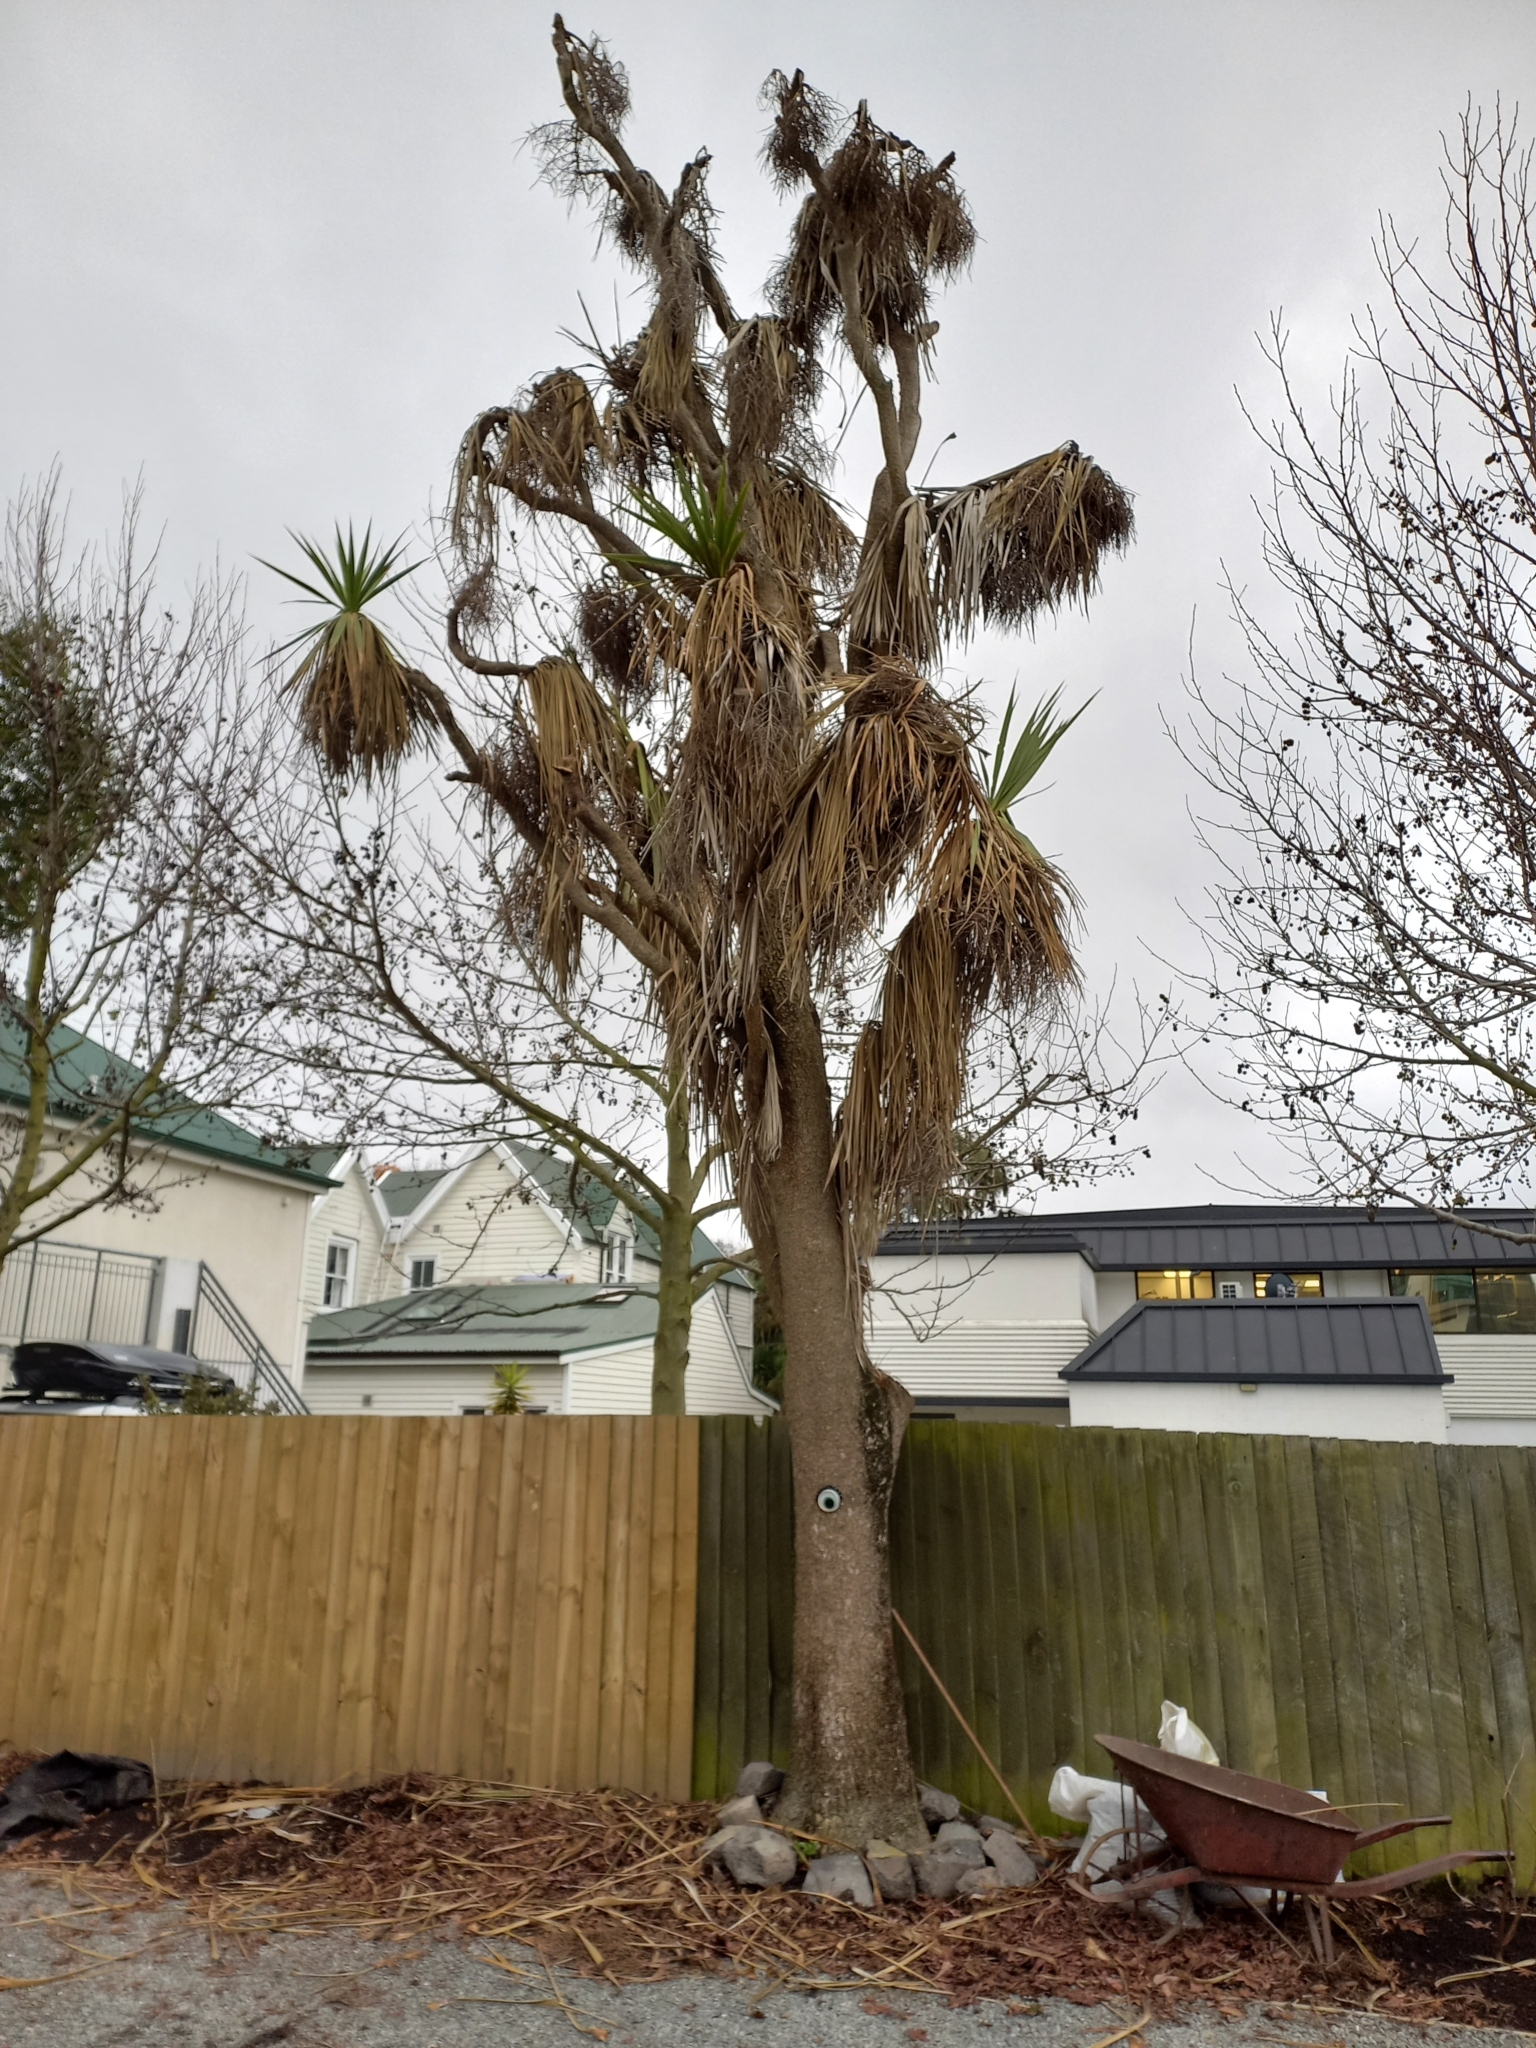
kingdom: Plantae
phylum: Tracheophyta
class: Liliopsida
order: Asparagales
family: Asparagaceae
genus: Cordyline
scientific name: Cordyline australis
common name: Cabbage-palm
